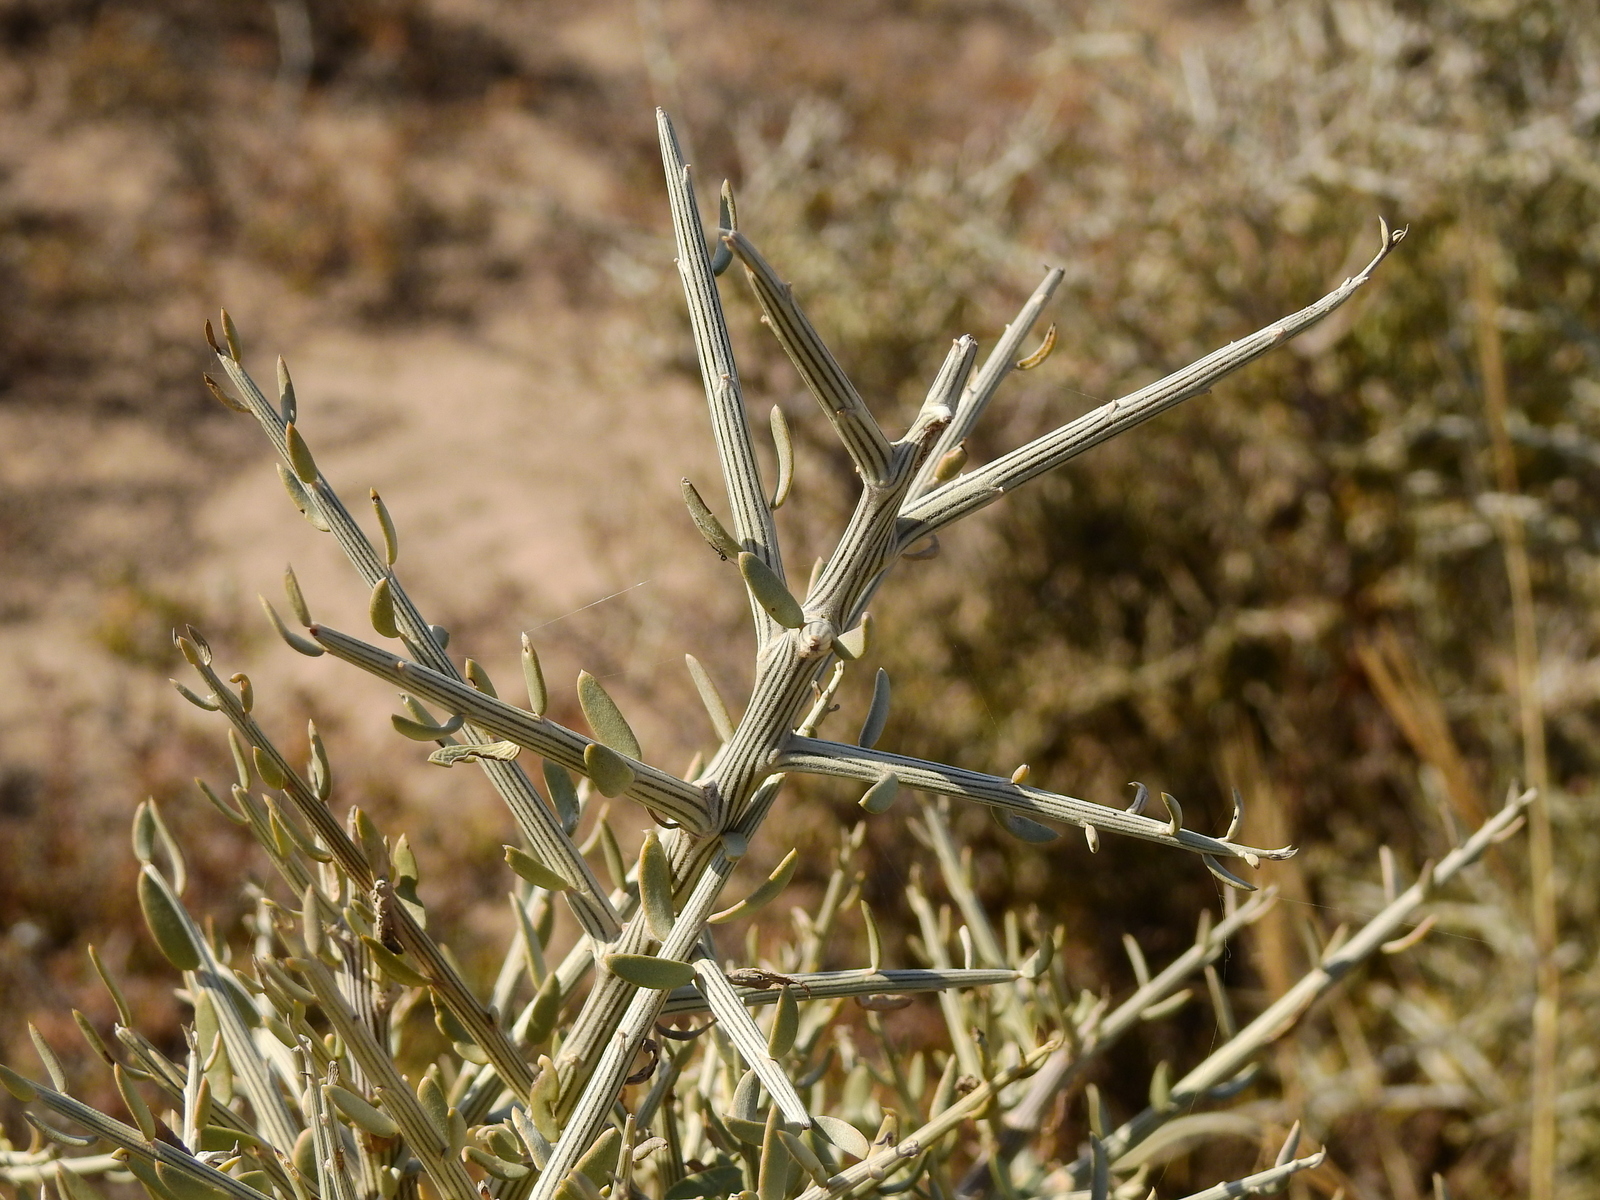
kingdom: Plantae
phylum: Tracheophyta
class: Magnoliopsida
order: Asterales
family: Asteraceae
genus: Cyclolepis
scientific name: Cyclolepis genistoides
